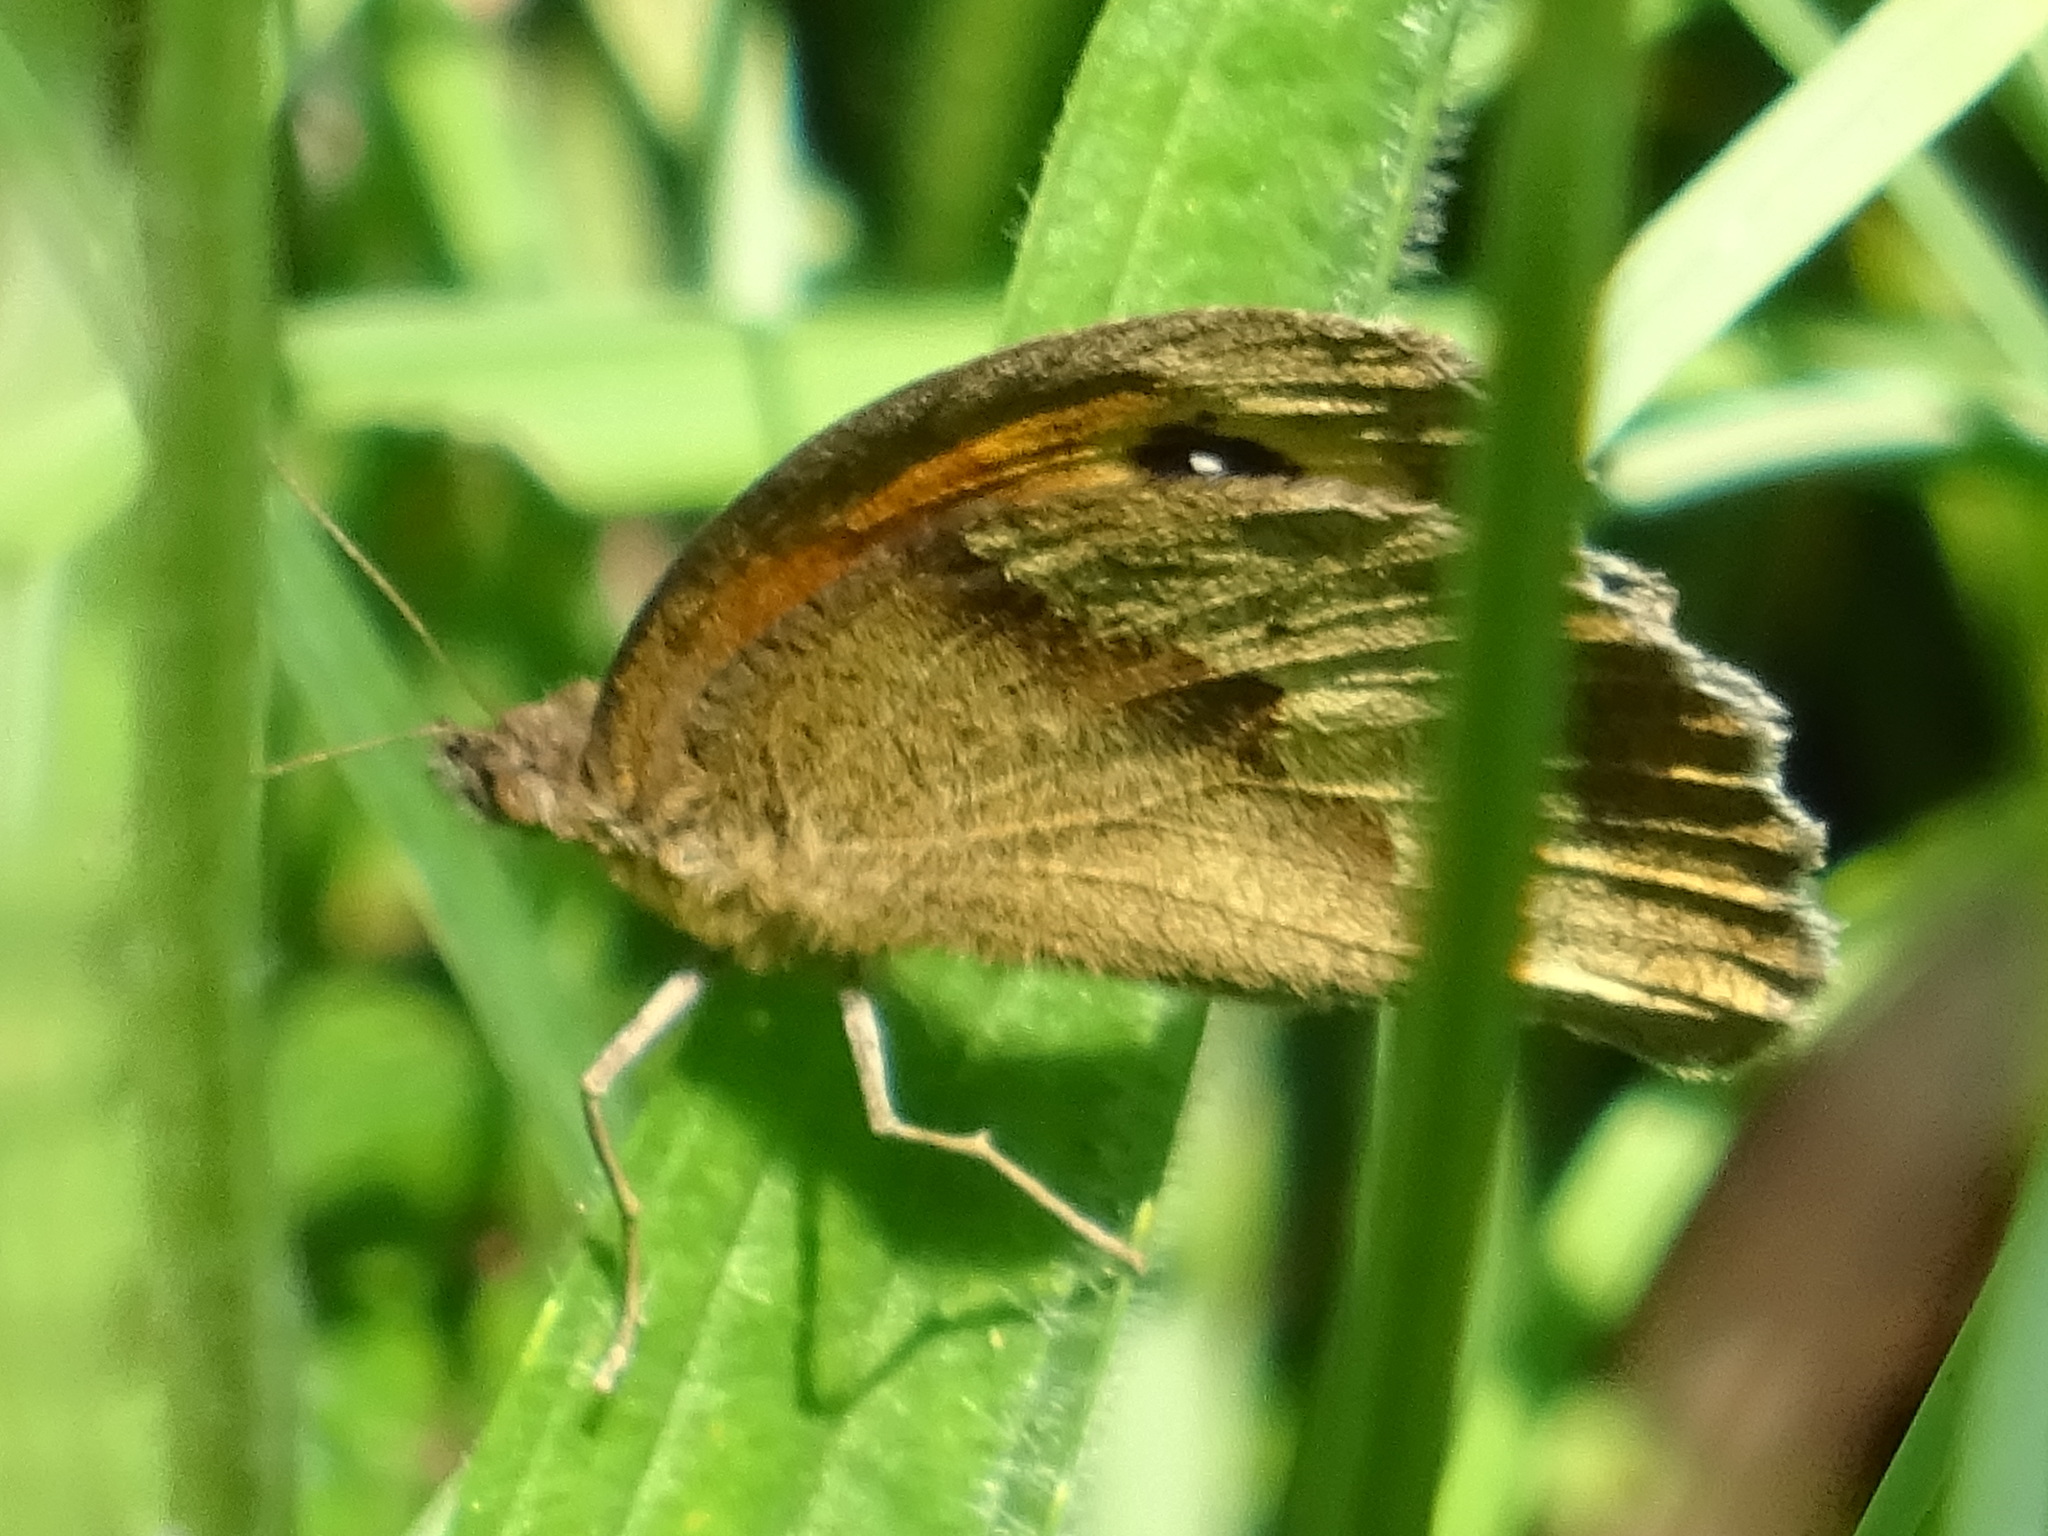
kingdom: Animalia
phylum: Arthropoda
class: Insecta
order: Lepidoptera
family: Nymphalidae
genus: Maniola
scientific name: Maniola jurtina
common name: Meadow brown
